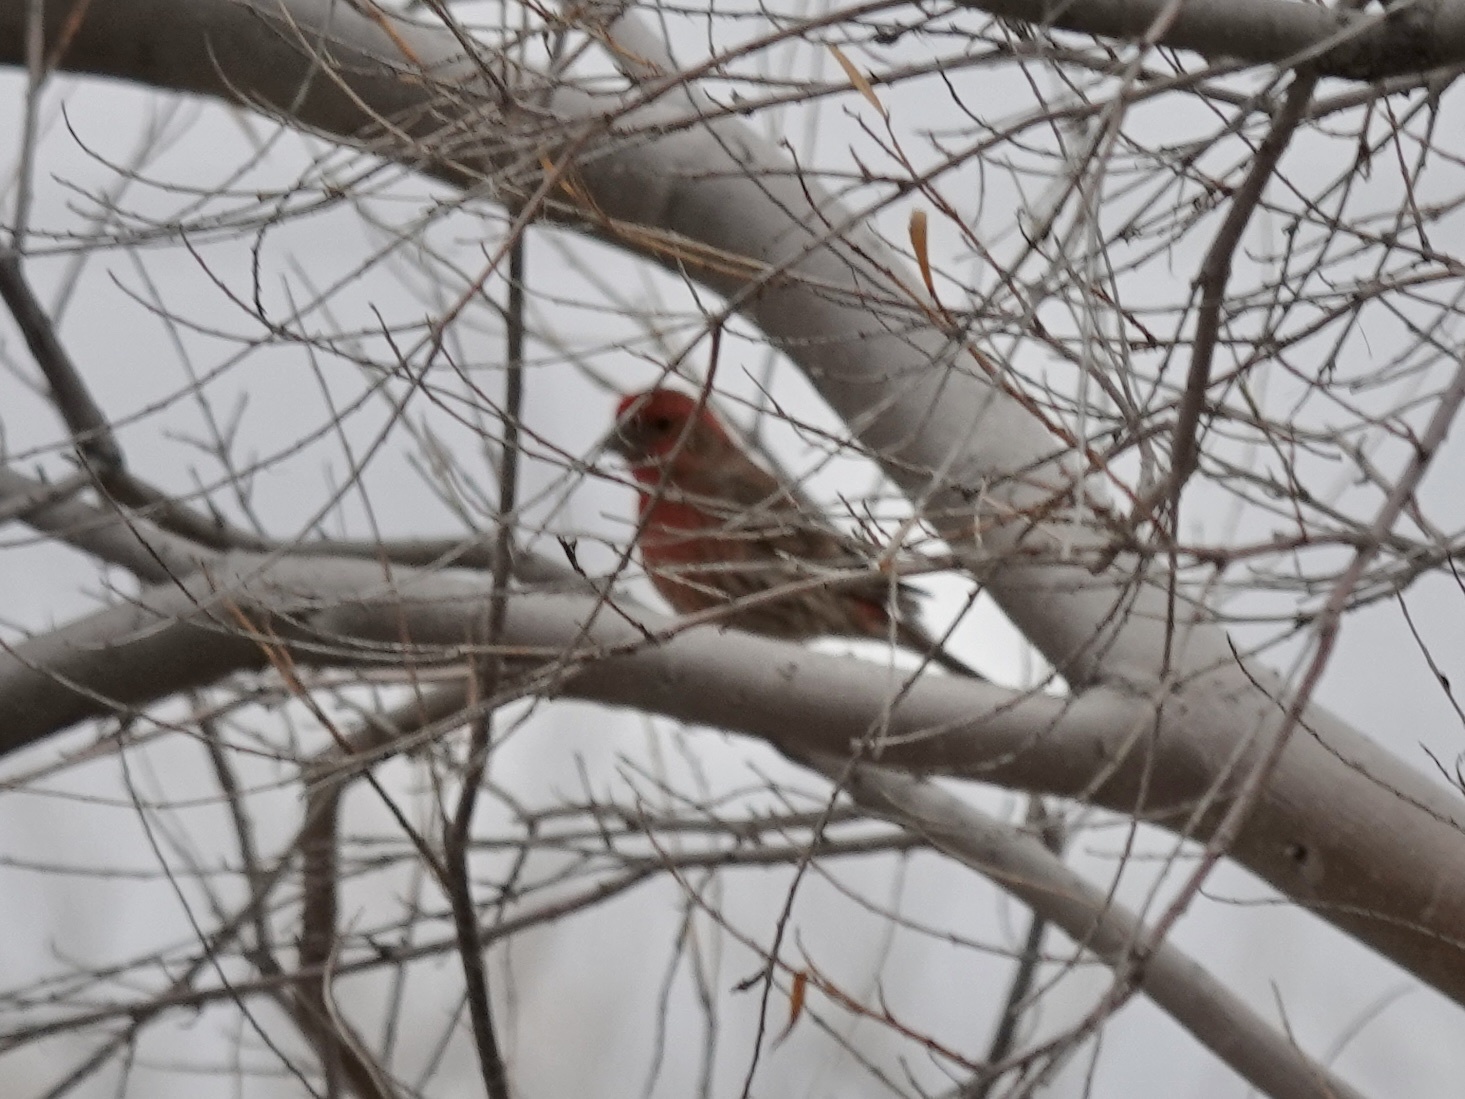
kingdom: Animalia
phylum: Chordata
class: Aves
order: Passeriformes
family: Fringillidae
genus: Haemorhous
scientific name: Haemorhous mexicanus
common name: House finch
